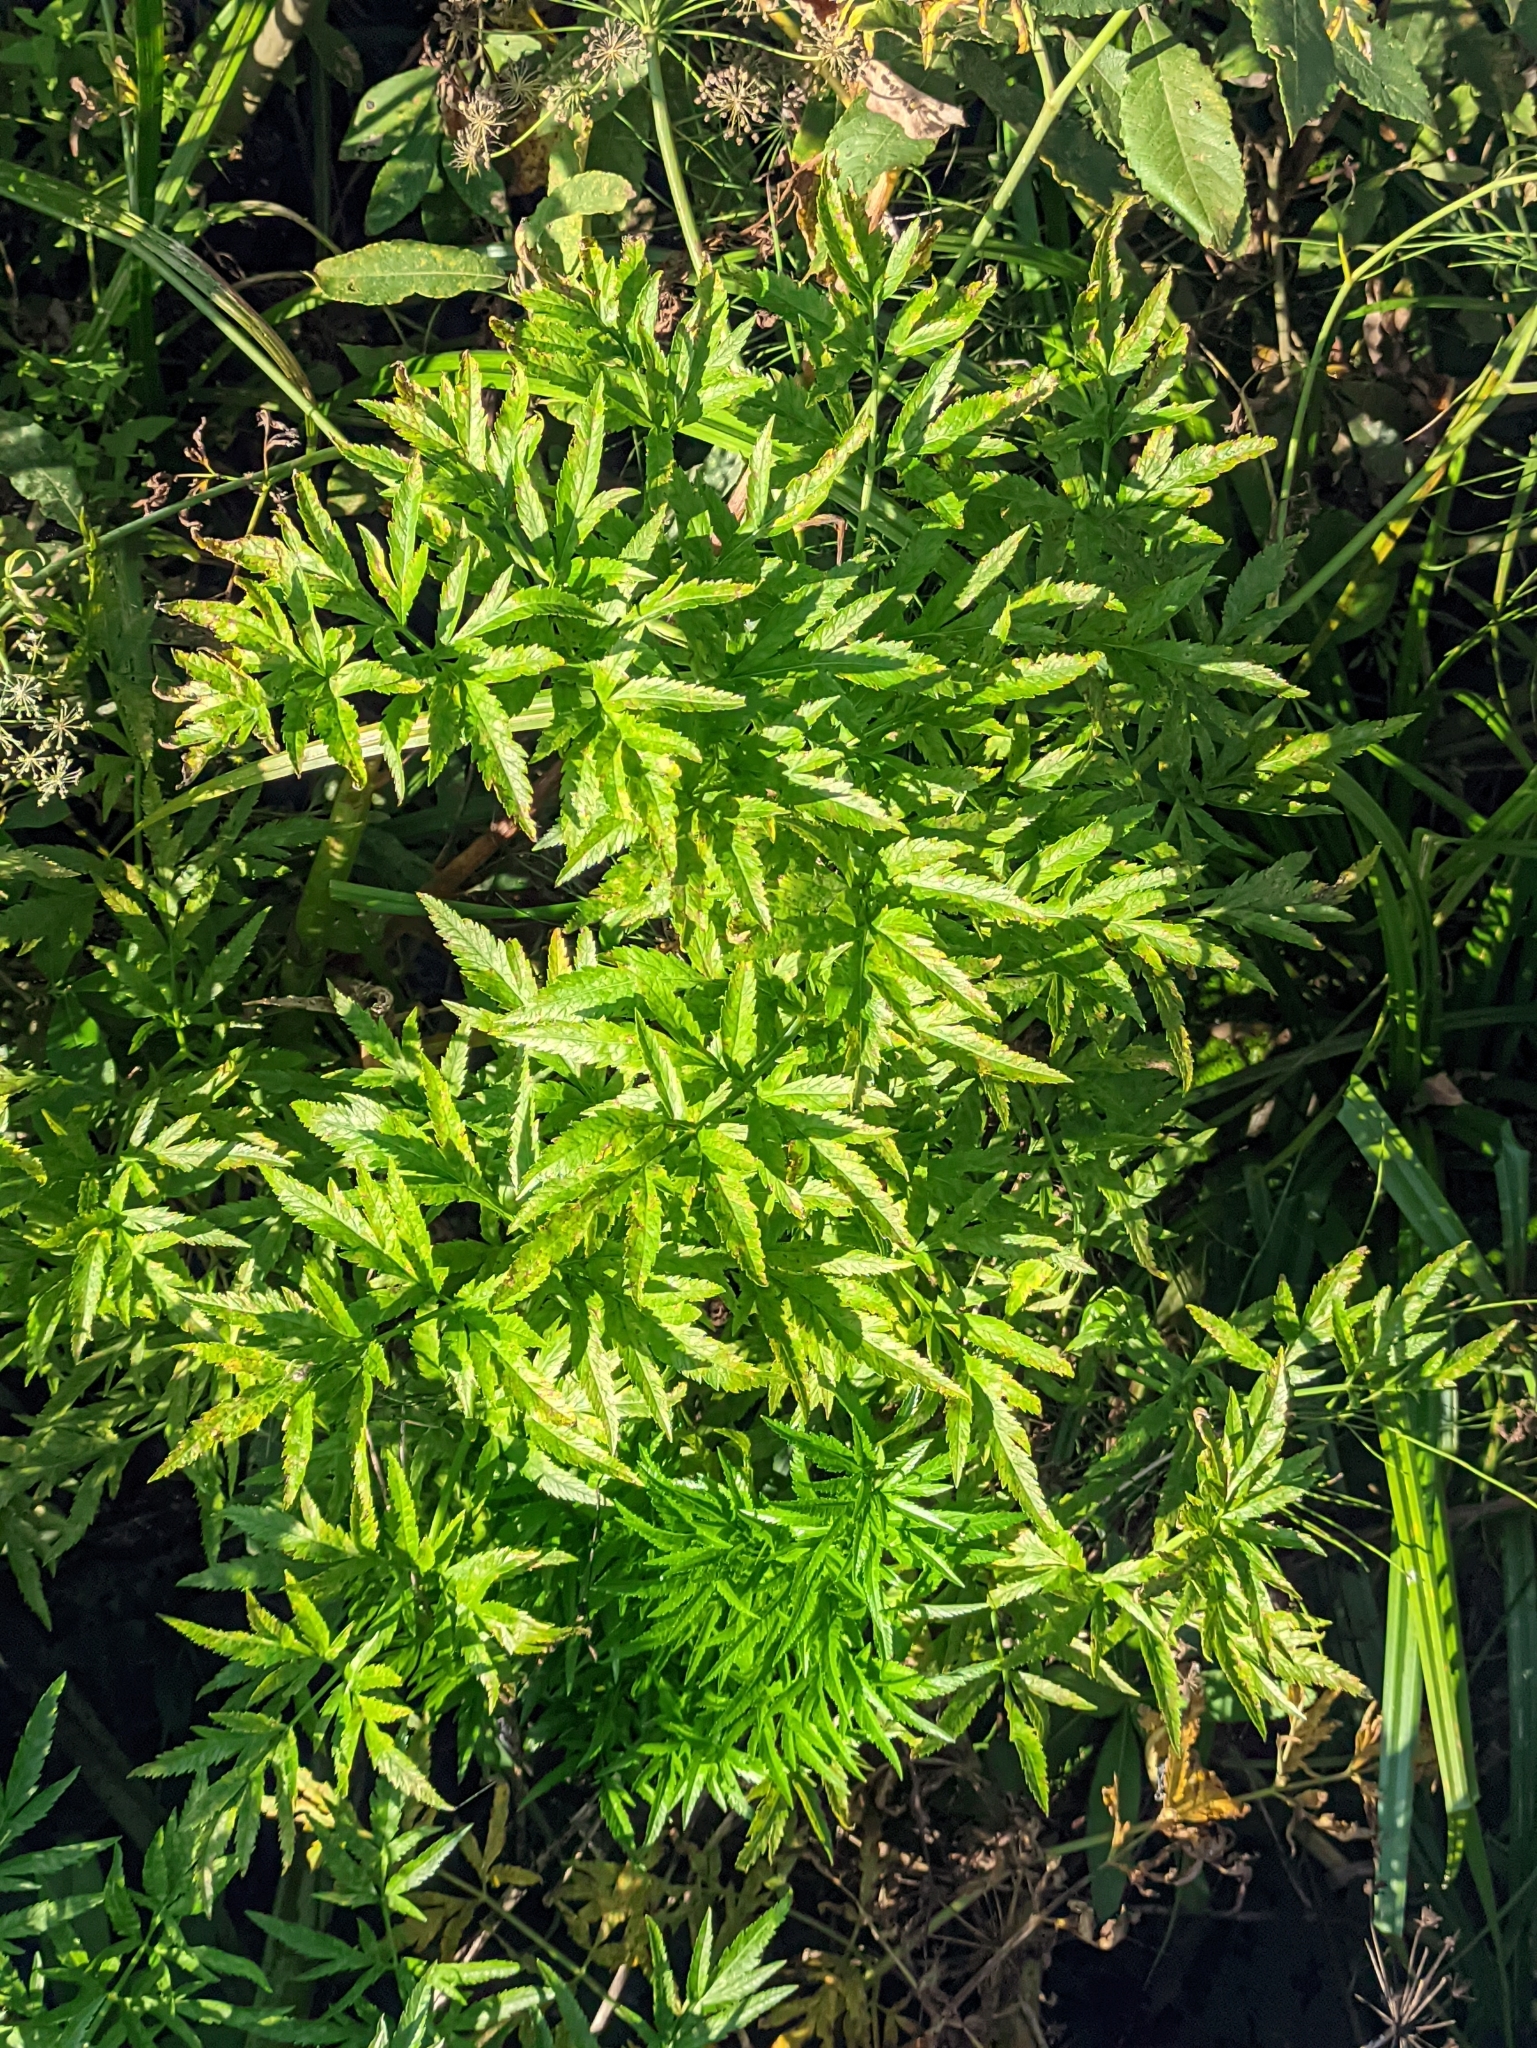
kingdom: Plantae
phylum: Tracheophyta
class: Magnoliopsida
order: Apiales
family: Apiaceae
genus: Cicuta
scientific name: Cicuta virosa
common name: Cowbane
